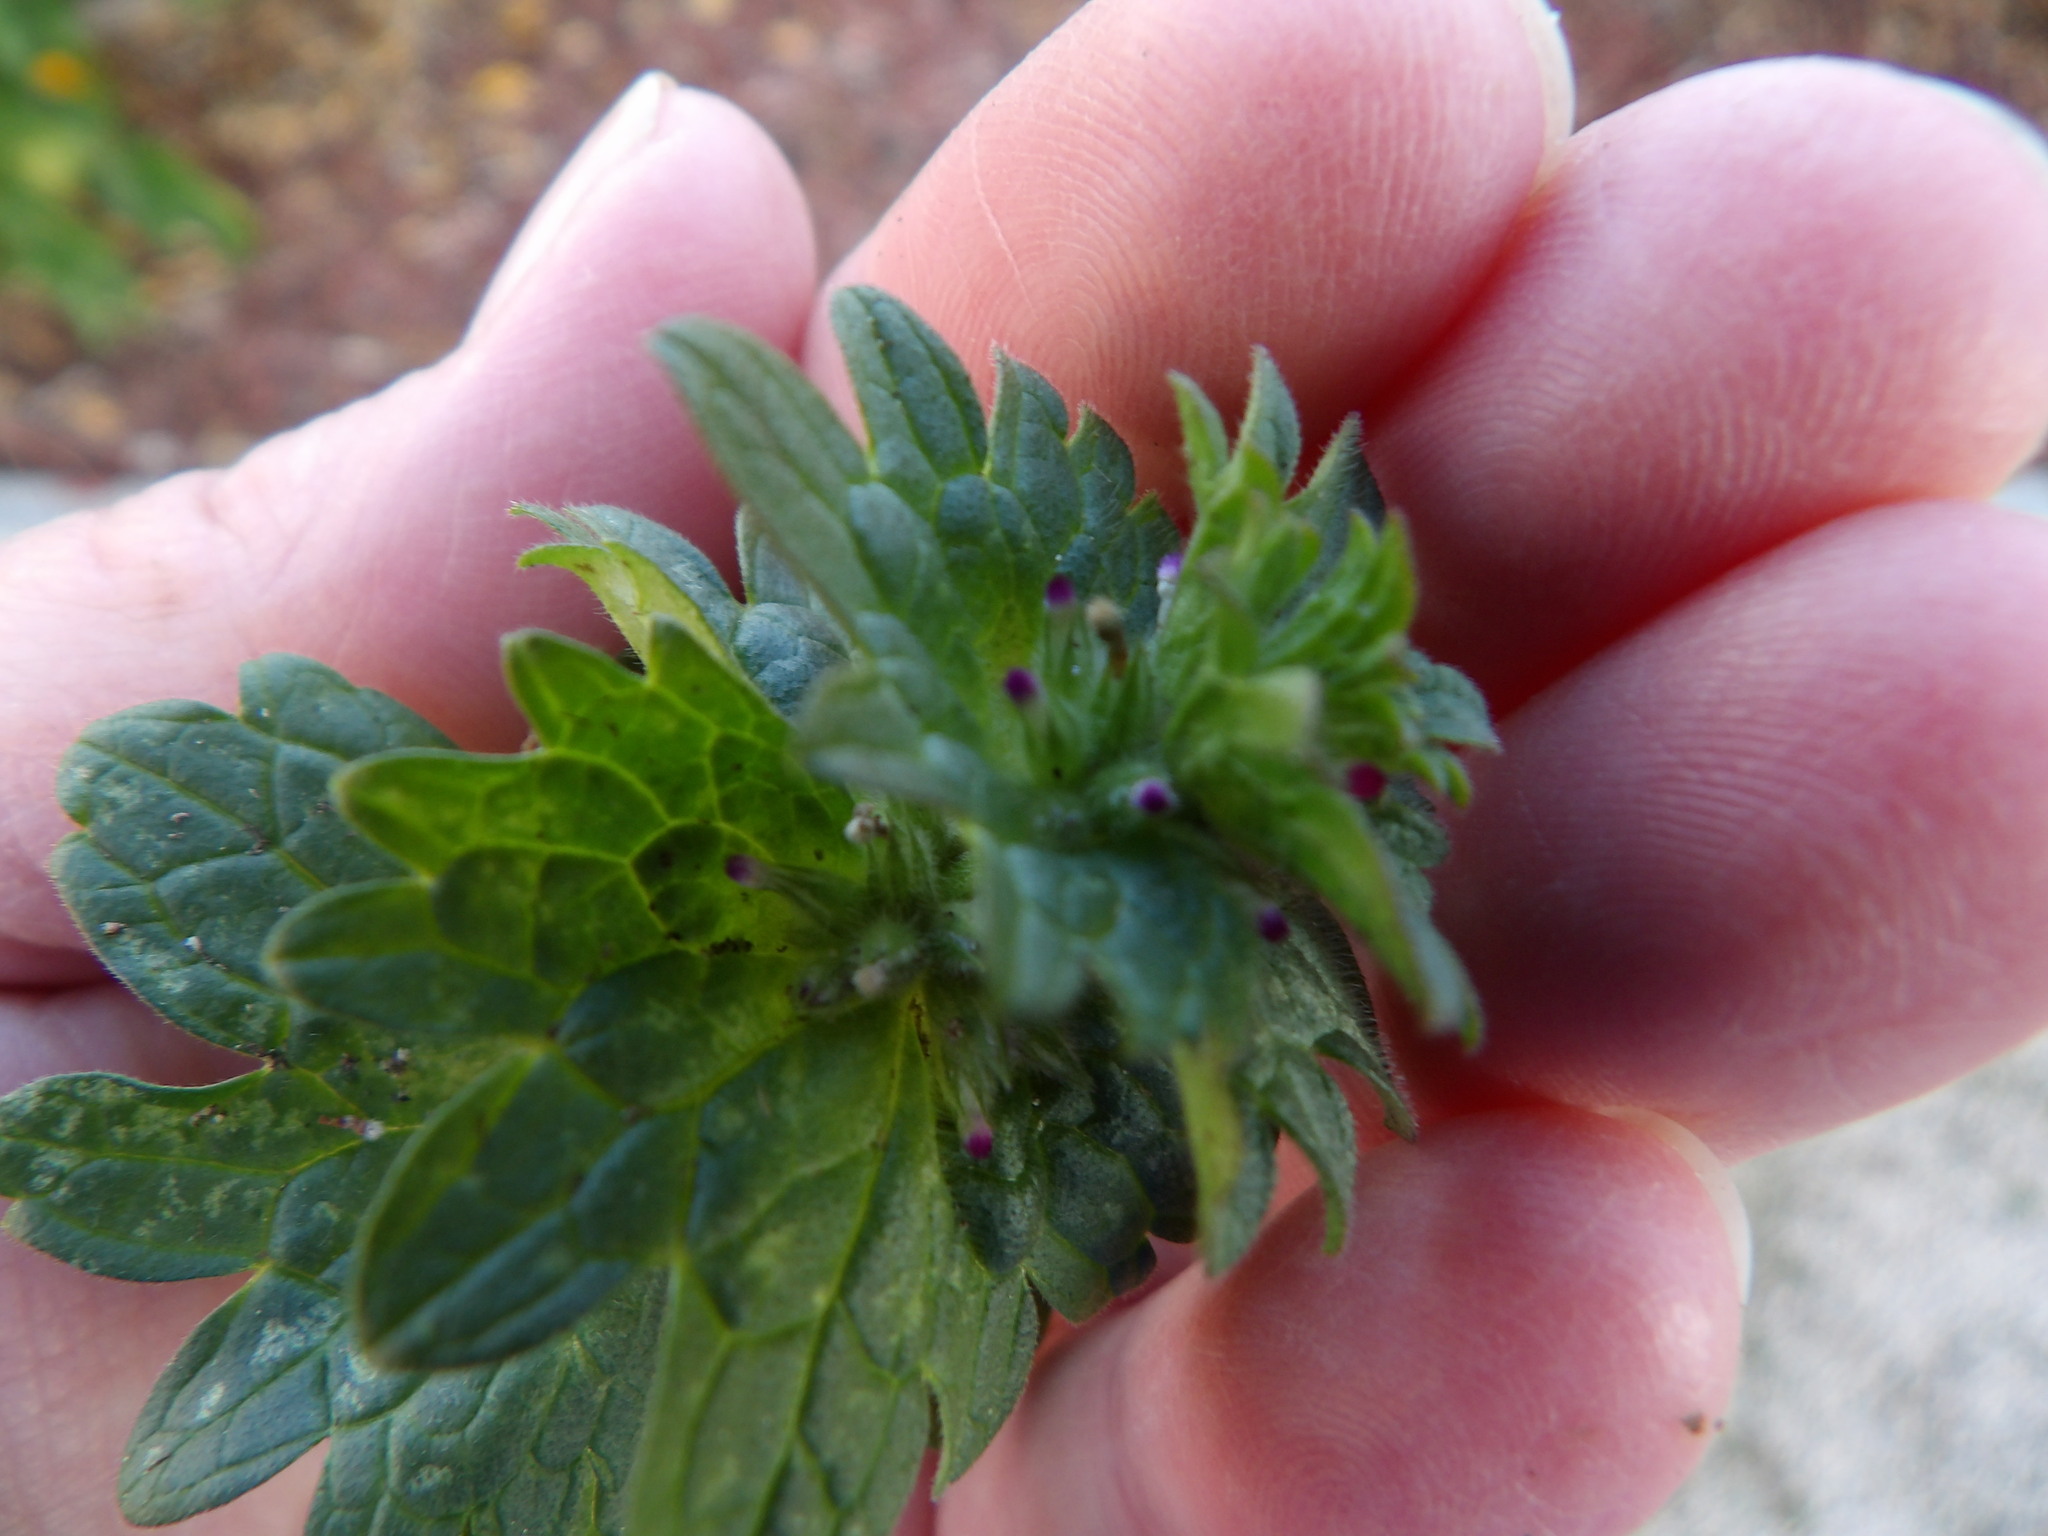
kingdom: Plantae
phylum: Tracheophyta
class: Magnoliopsida
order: Lamiales
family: Lamiaceae
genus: Lamium
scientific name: Lamium amplexicaule
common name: Henbit dead-nettle
